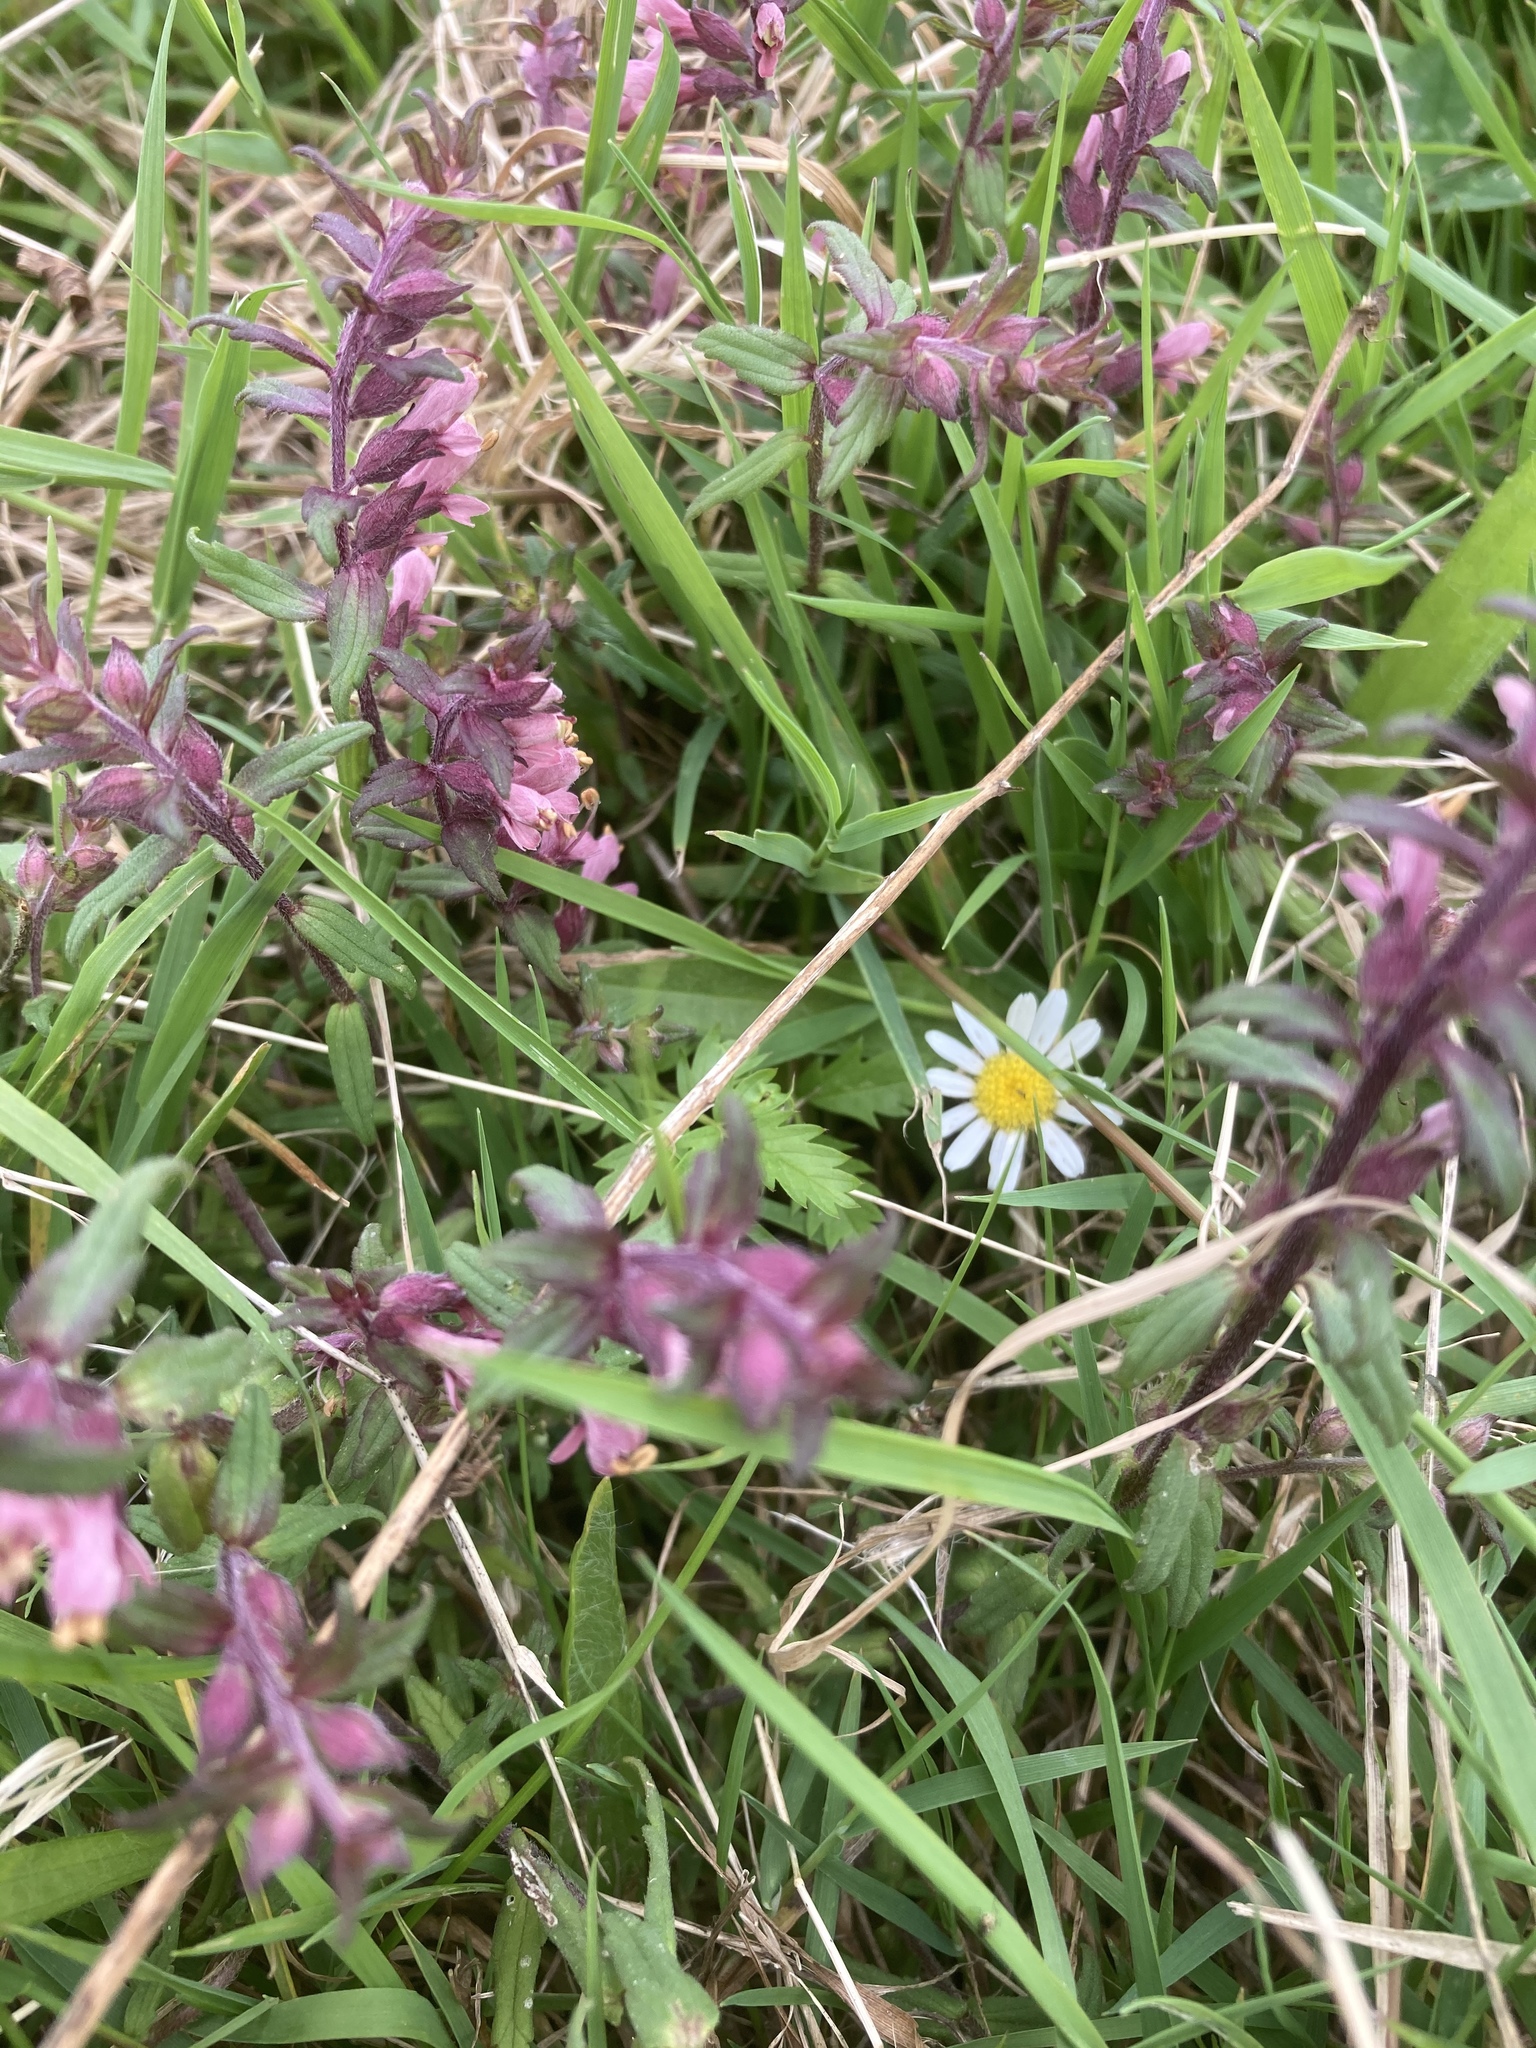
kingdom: Plantae
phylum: Tracheophyta
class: Magnoliopsida
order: Lamiales
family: Orobanchaceae
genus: Odontites
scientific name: Odontites vernus
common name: Red bartsia
